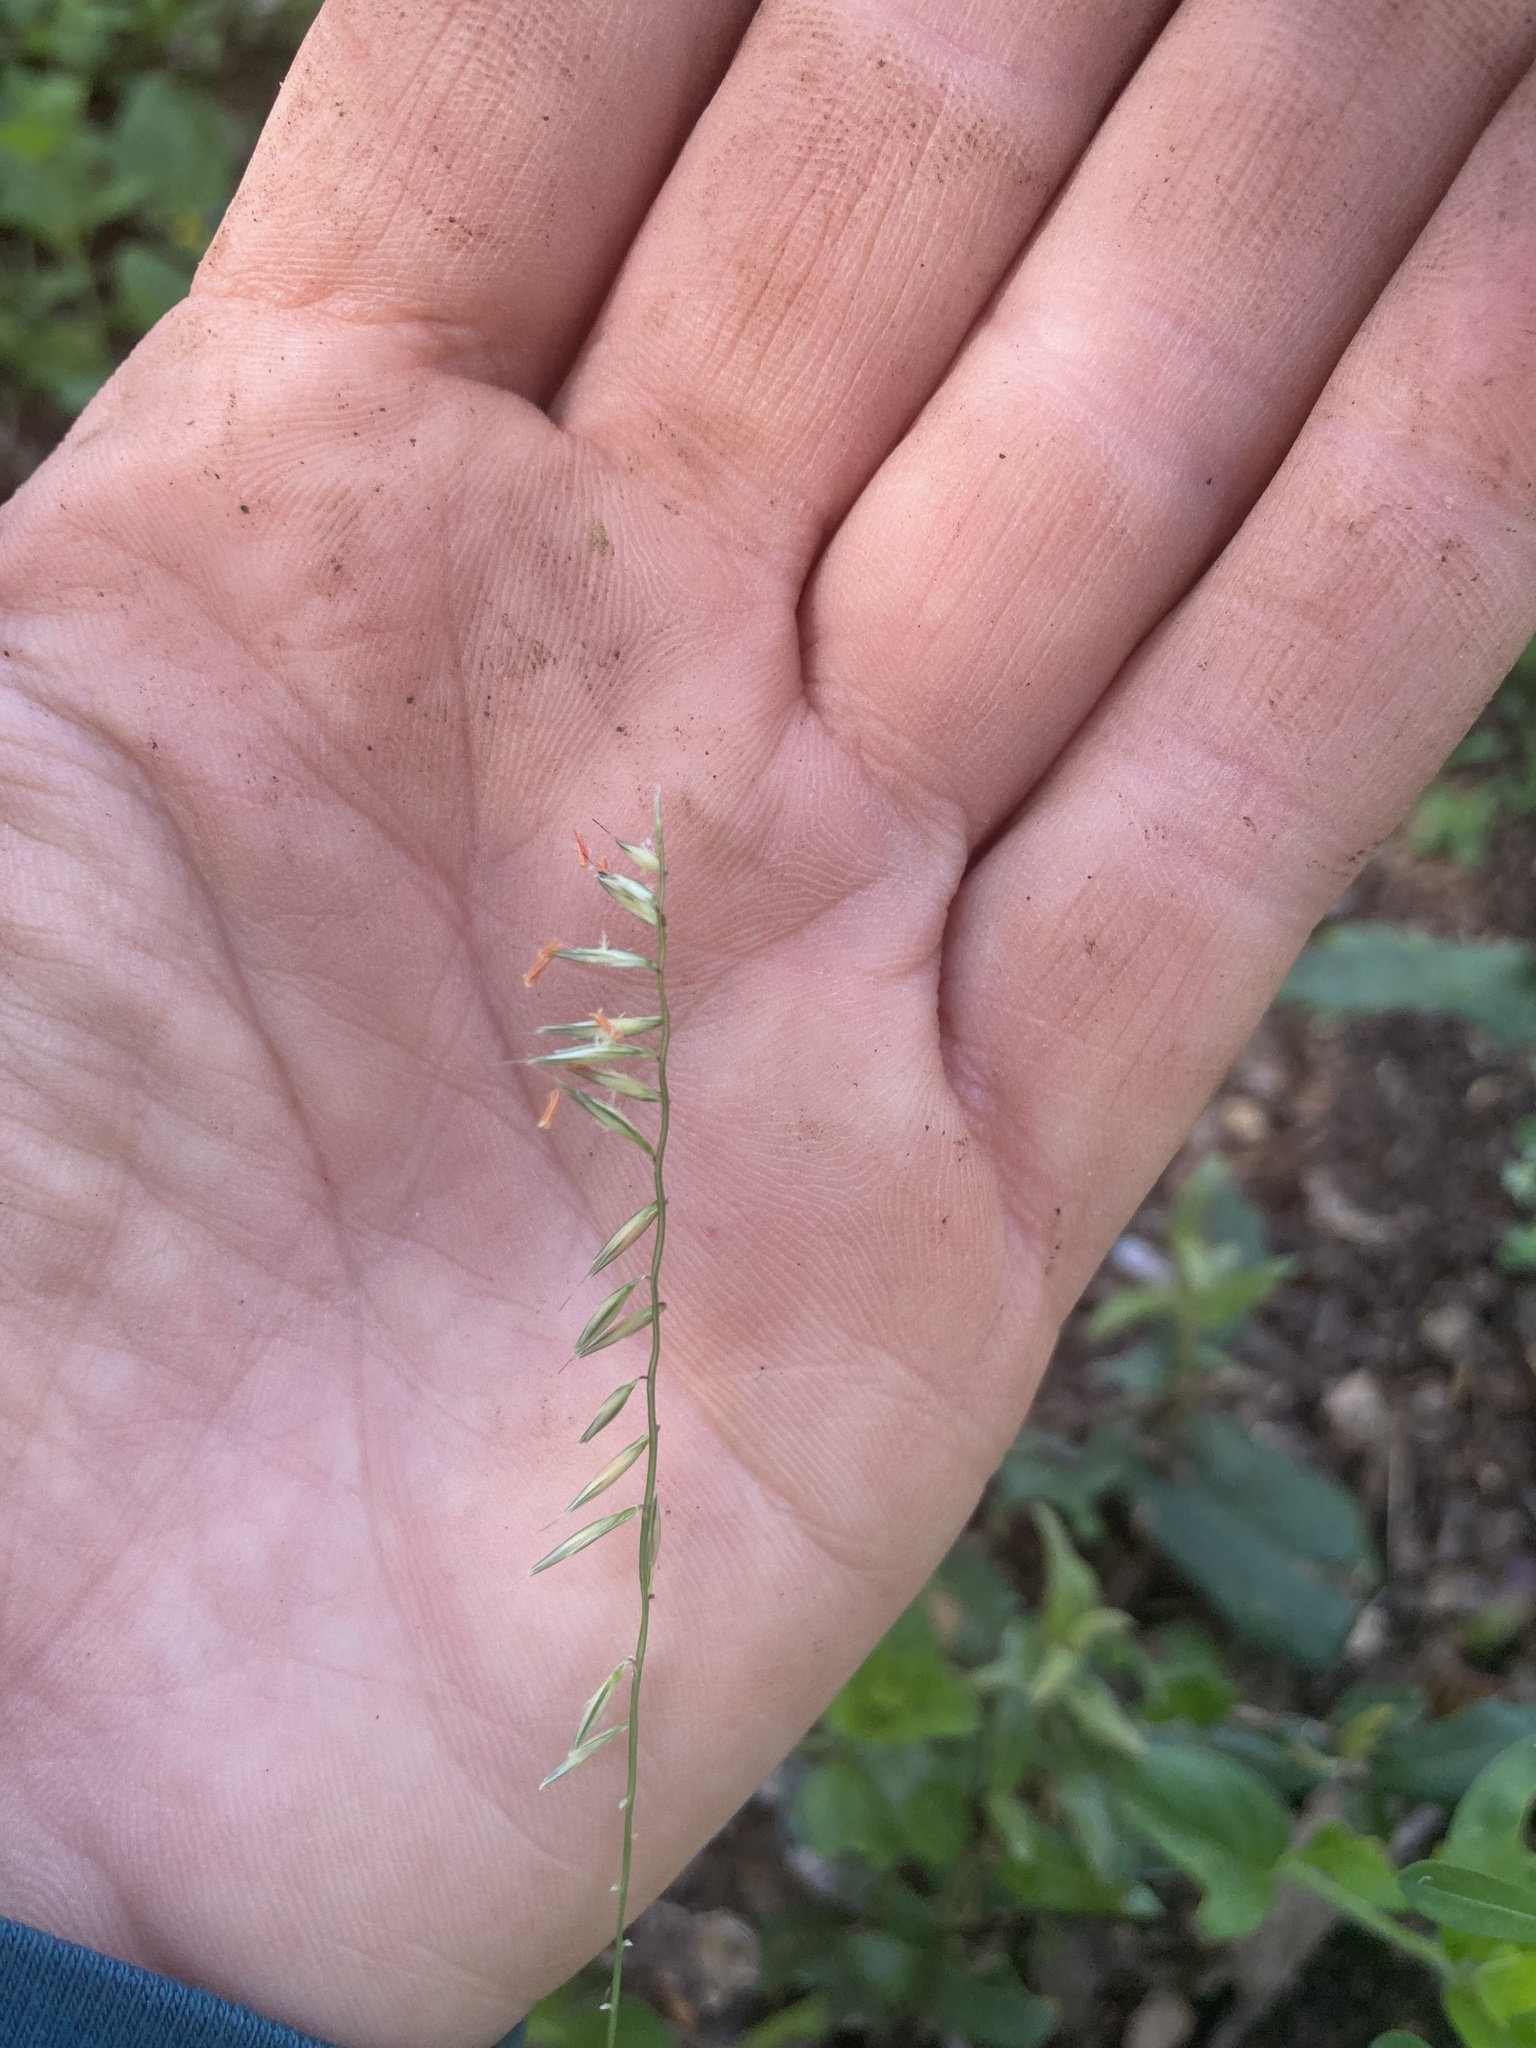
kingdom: Plantae
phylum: Tracheophyta
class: Liliopsida
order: Poales
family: Poaceae
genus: Bouteloua
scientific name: Bouteloua curtipendula
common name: Side-oats grama
